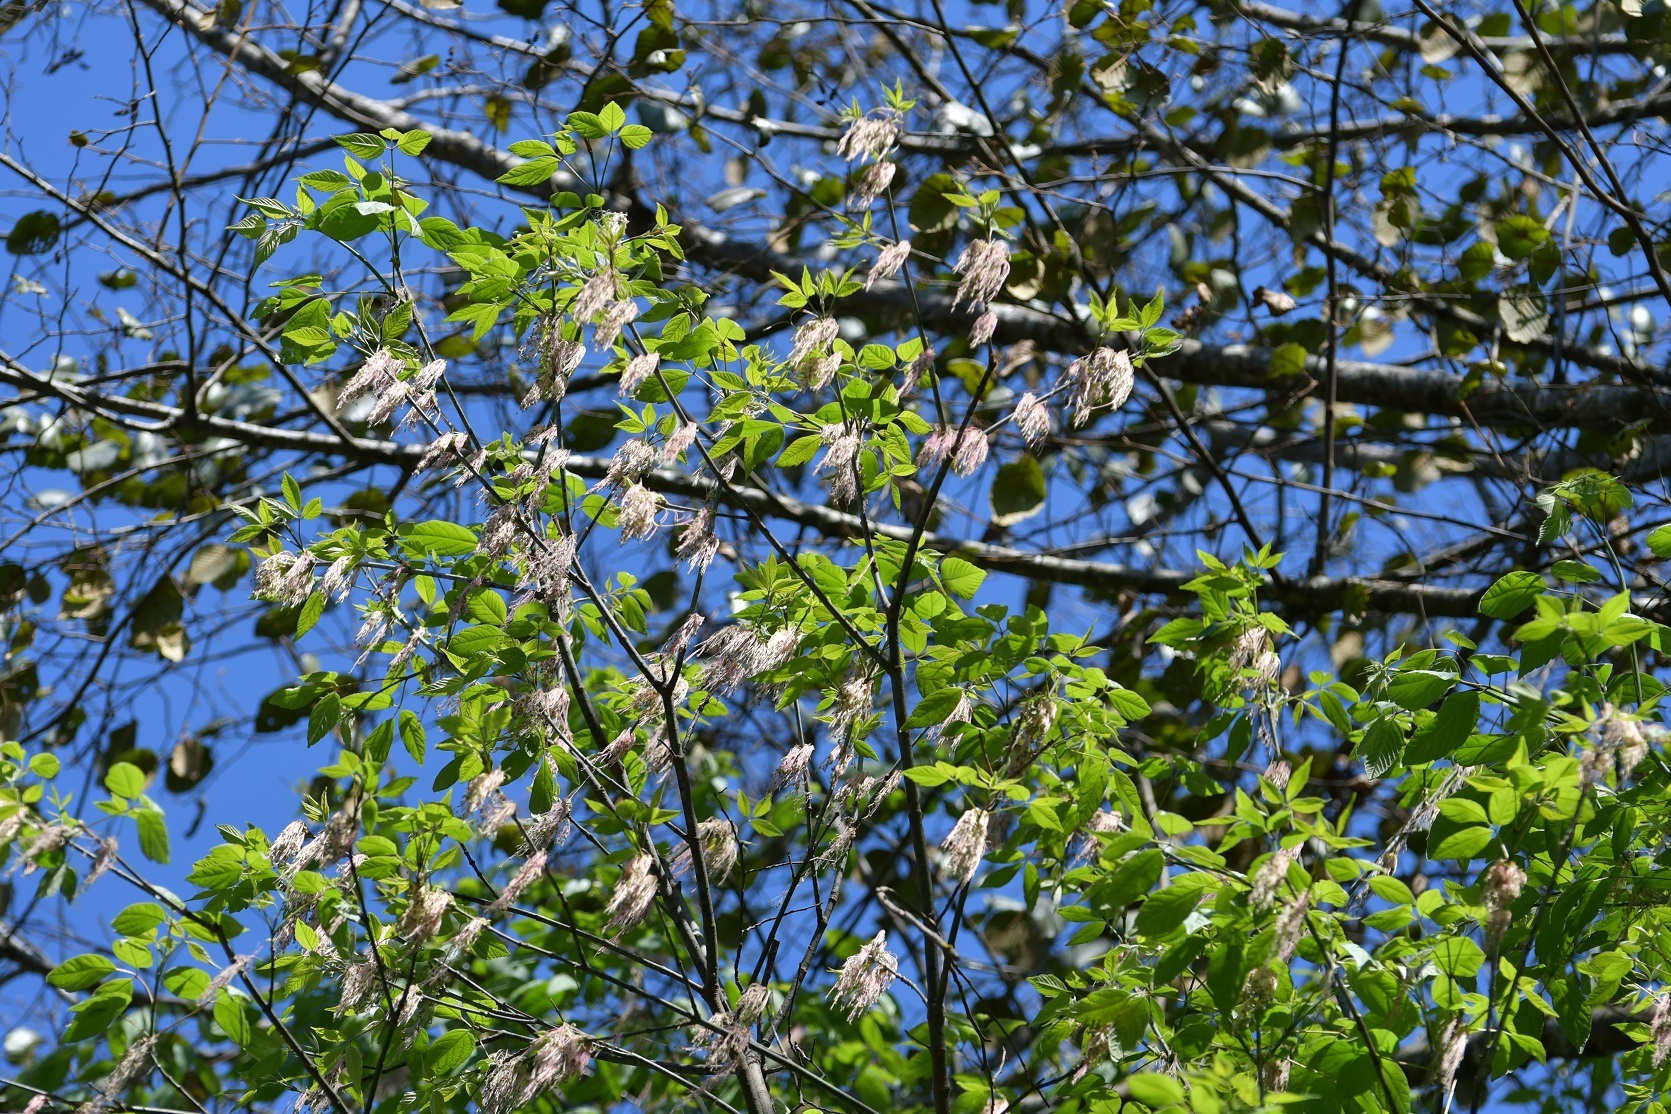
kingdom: Plantae
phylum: Tracheophyta
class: Magnoliopsida
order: Sapindales
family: Sapindaceae
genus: Acer
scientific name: Acer negundo
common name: Ashleaf maple
